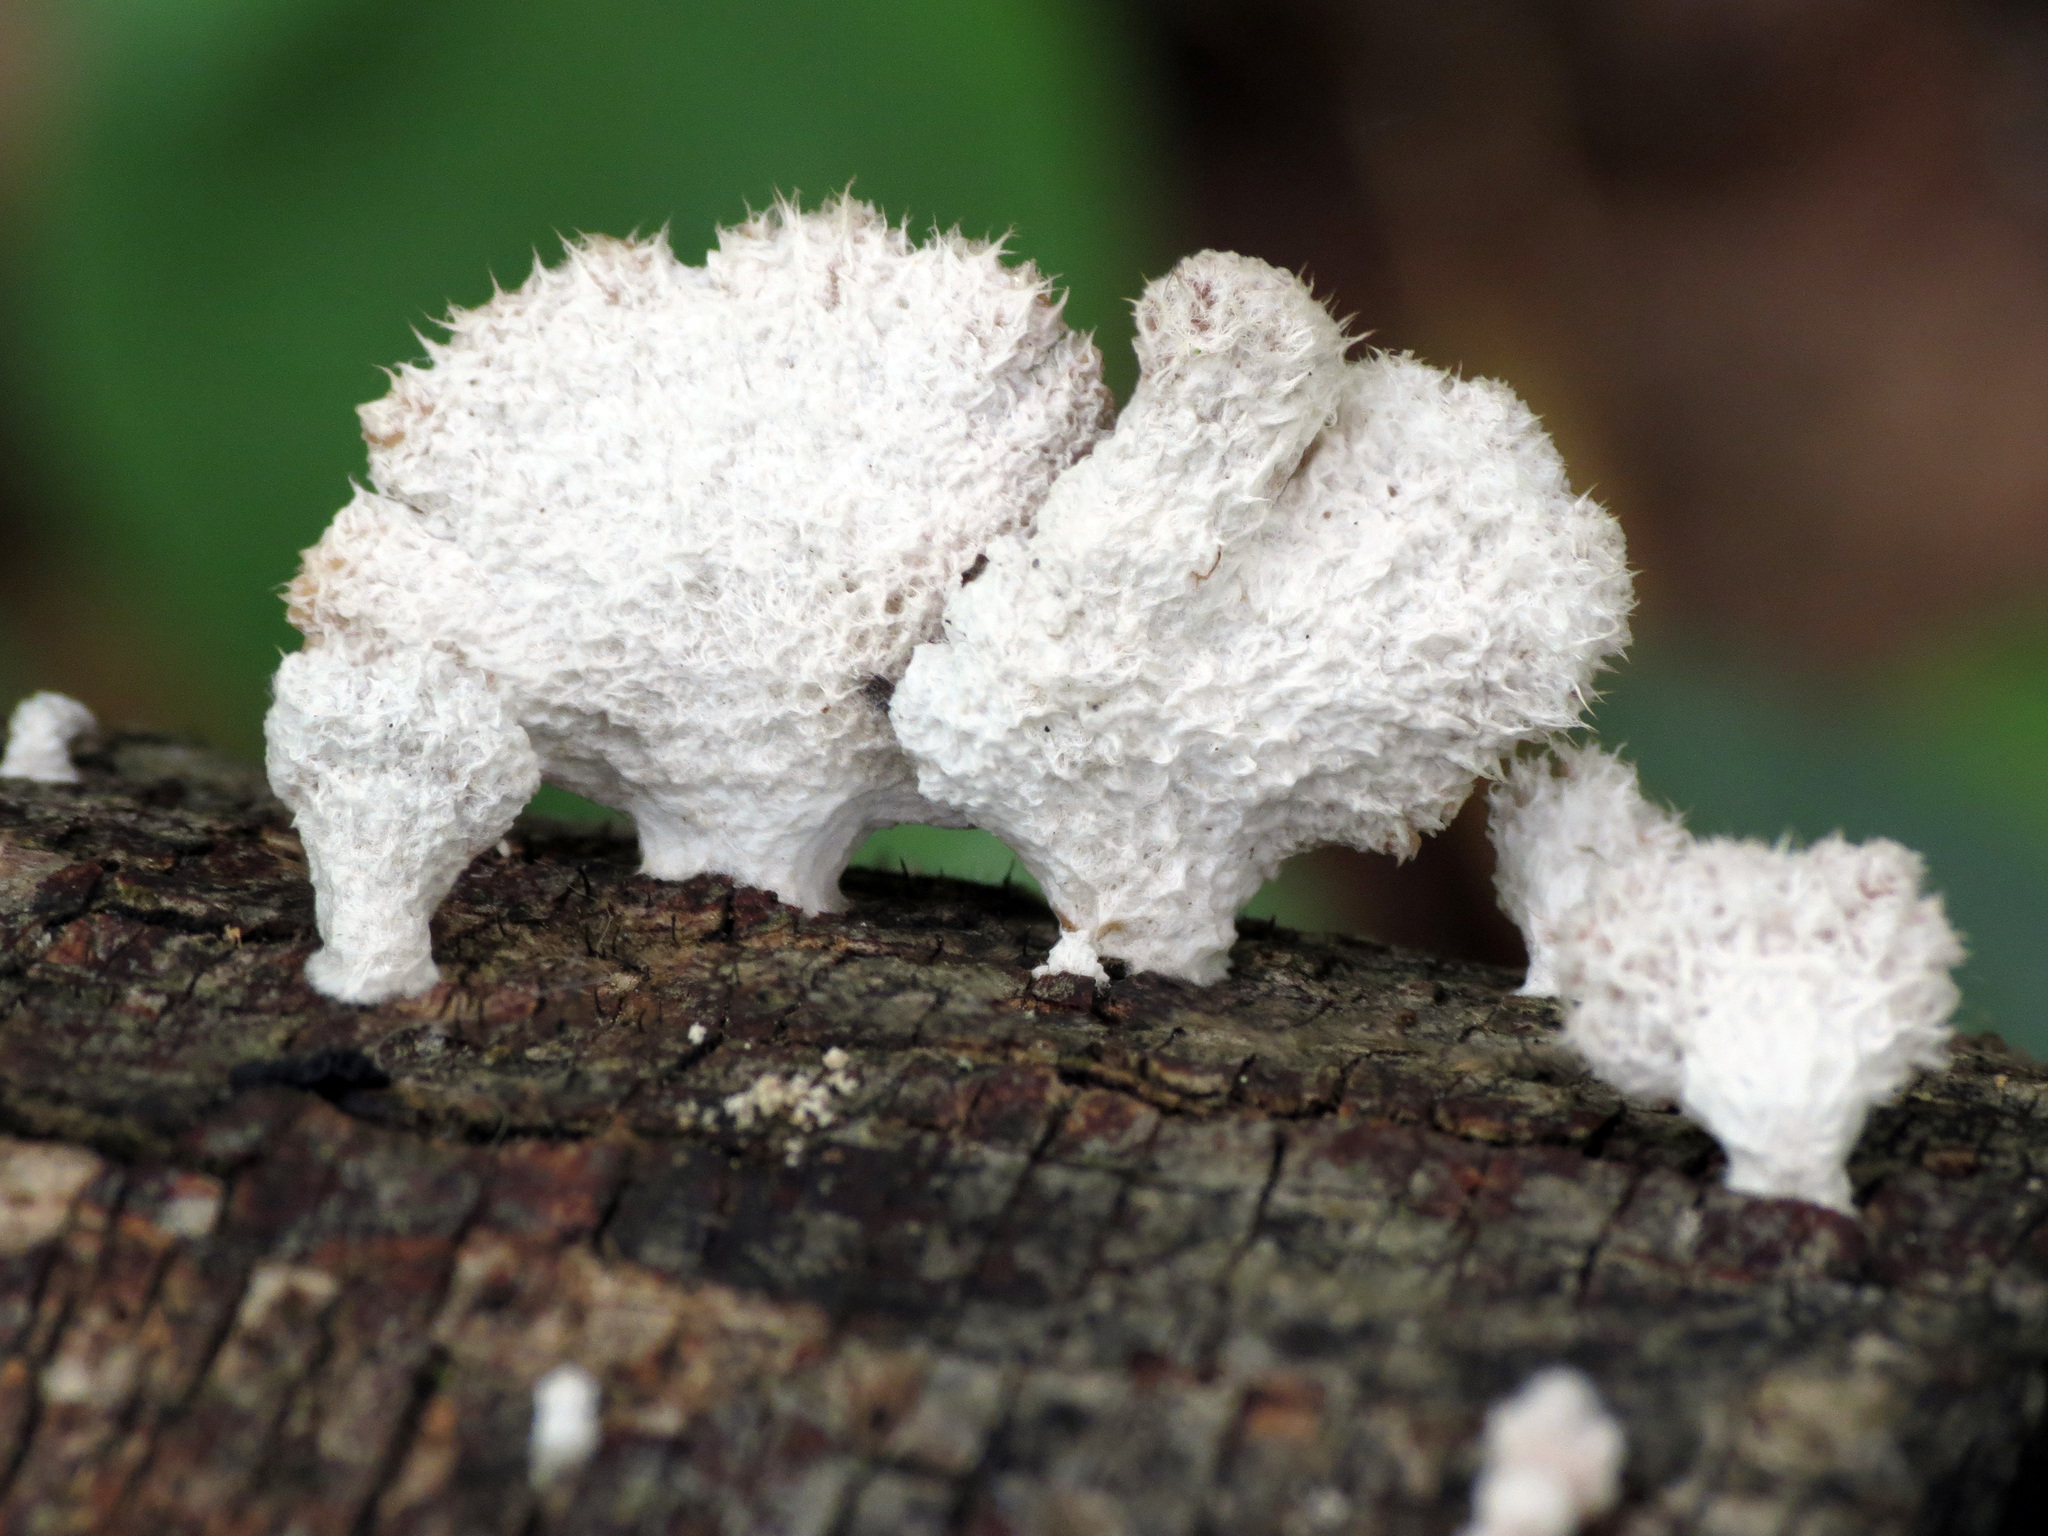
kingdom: Fungi
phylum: Basidiomycota
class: Agaricomycetes
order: Agaricales
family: Schizophyllaceae
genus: Schizophyllum
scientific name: Schizophyllum commune
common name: Common porecrust
